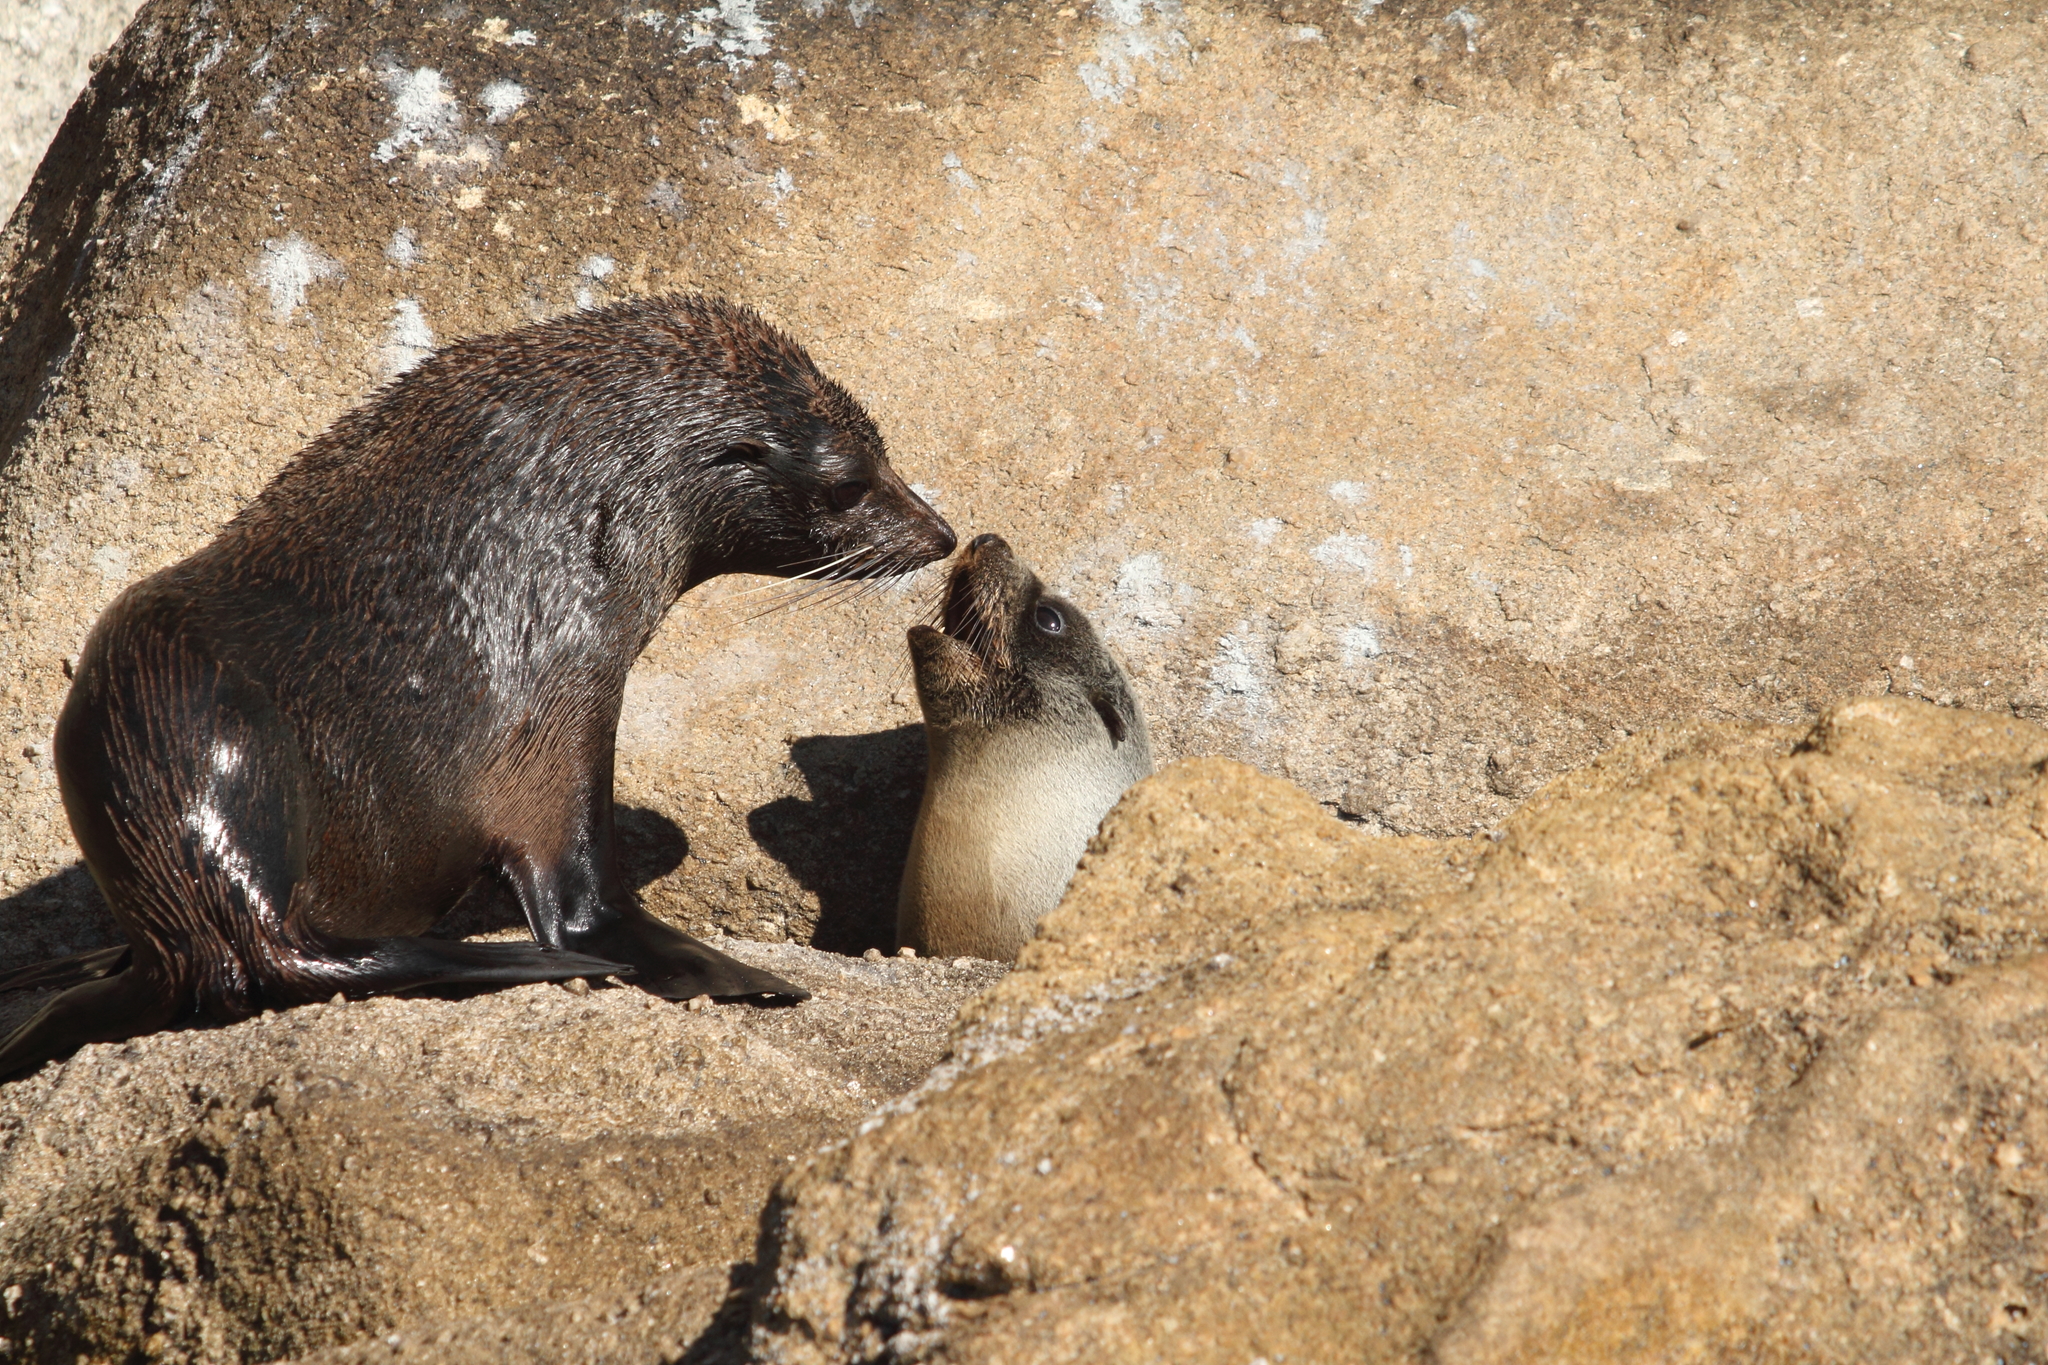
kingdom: Animalia
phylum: Chordata
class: Mammalia
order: Carnivora
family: Otariidae
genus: Arctocephalus
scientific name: Arctocephalus forsteri
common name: New zealand fur seal
